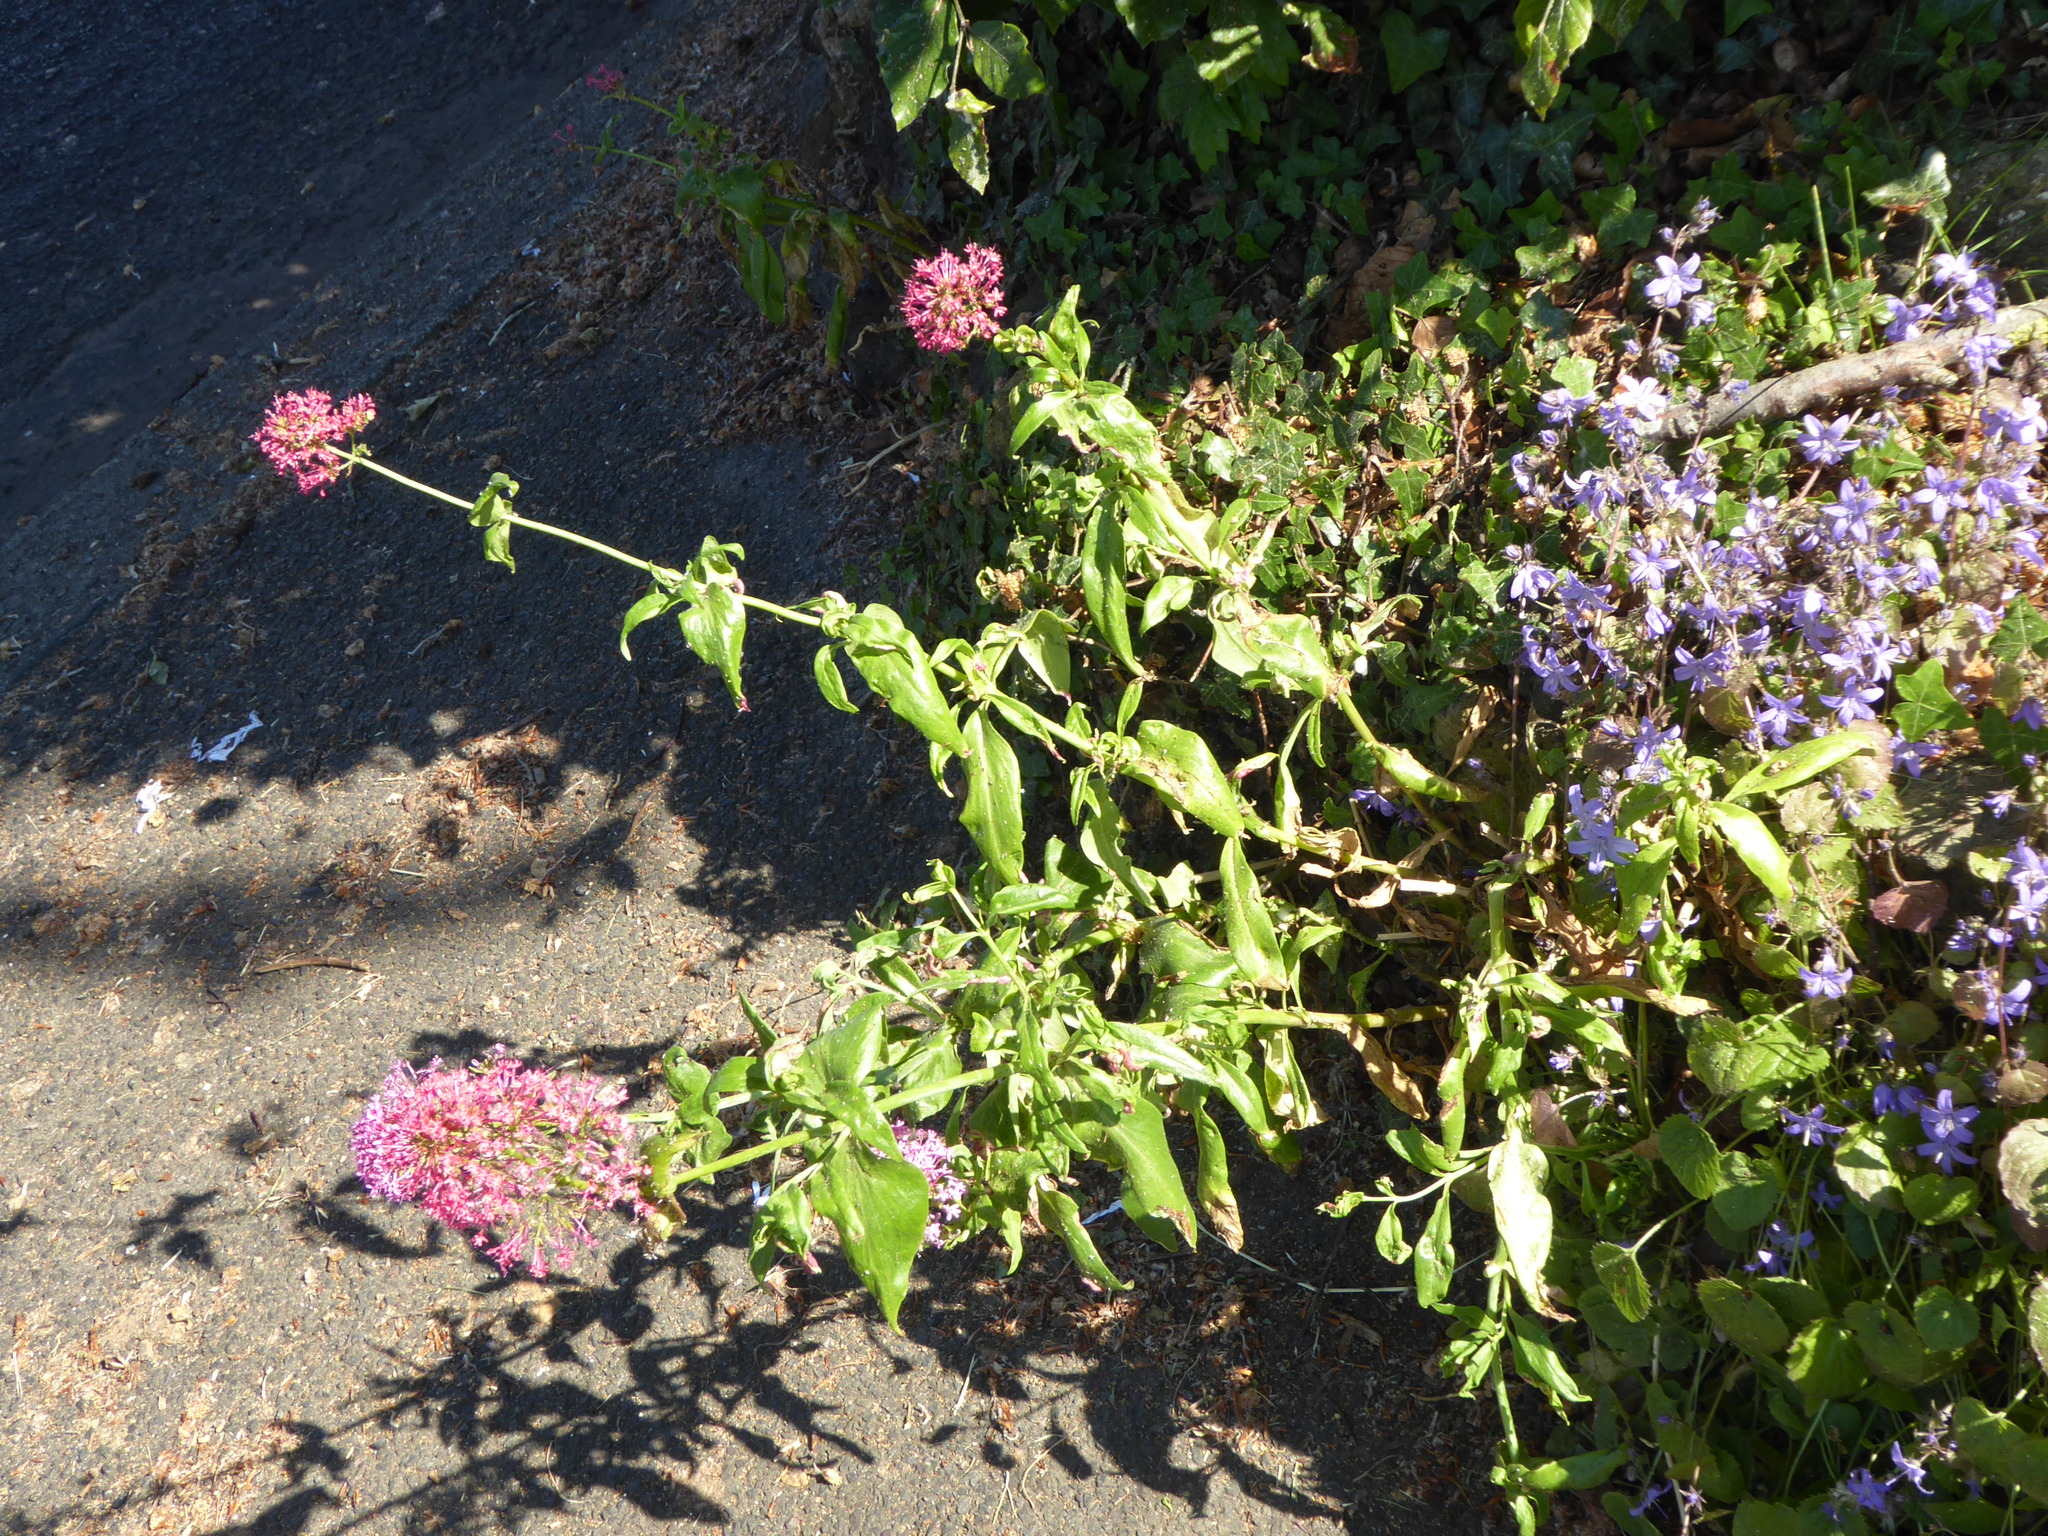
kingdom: Animalia
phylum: Arthropoda
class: Insecta
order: Hemiptera
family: Triozidae
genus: Trioza
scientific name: Trioza centranthi
